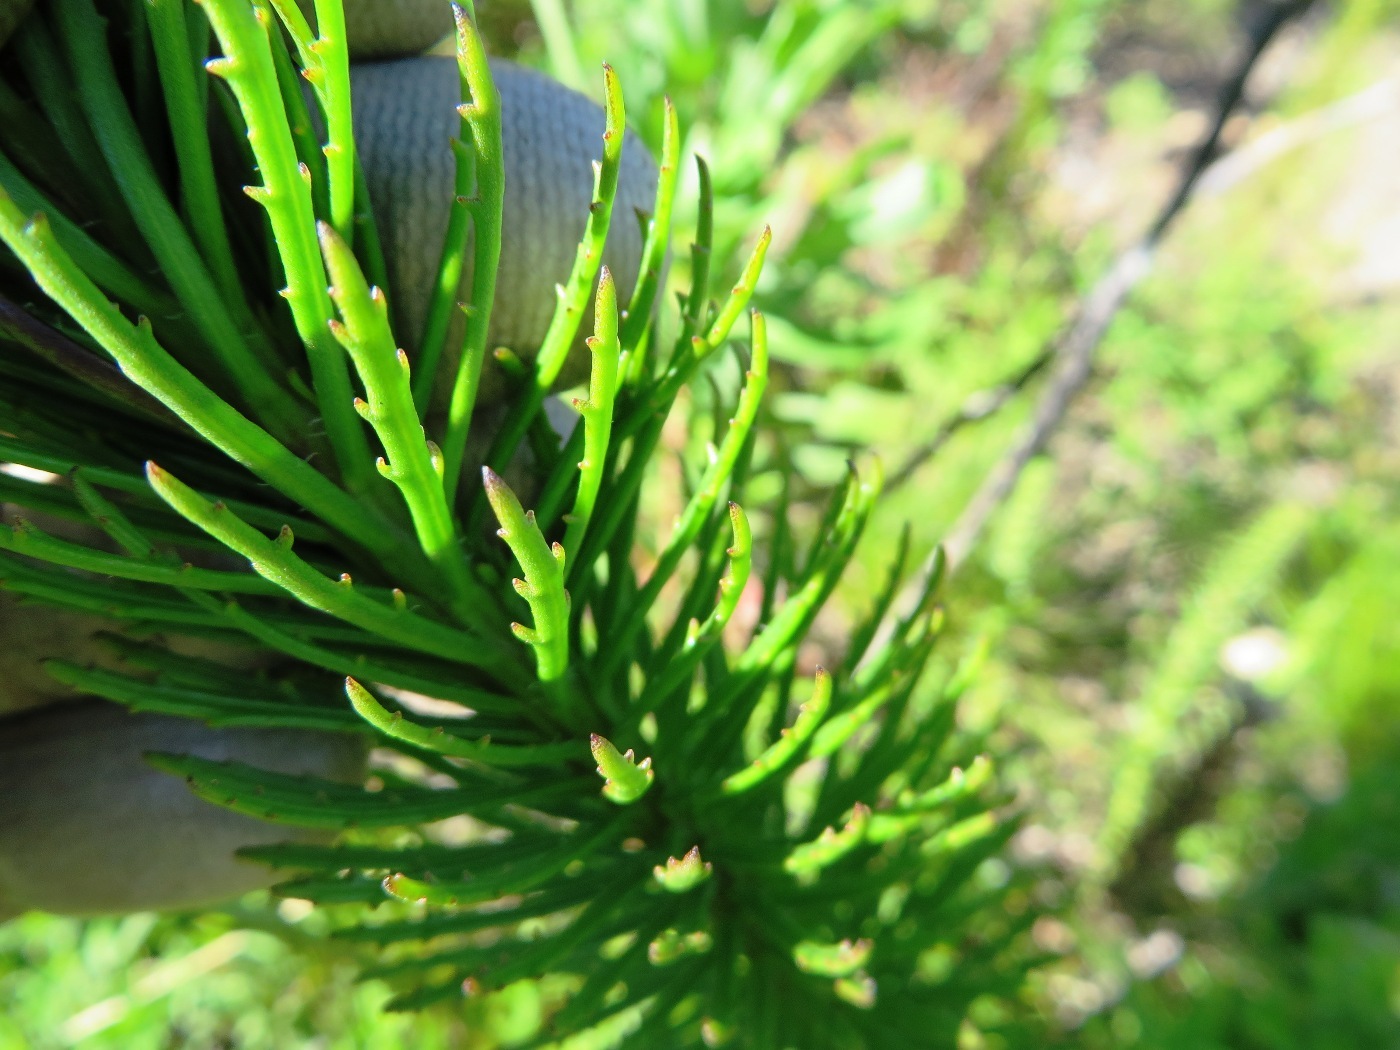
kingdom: Plantae
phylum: Tracheophyta
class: Magnoliopsida
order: Lamiales
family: Scrophulariaceae
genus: Pseudoselago
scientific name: Pseudoselago spuria
